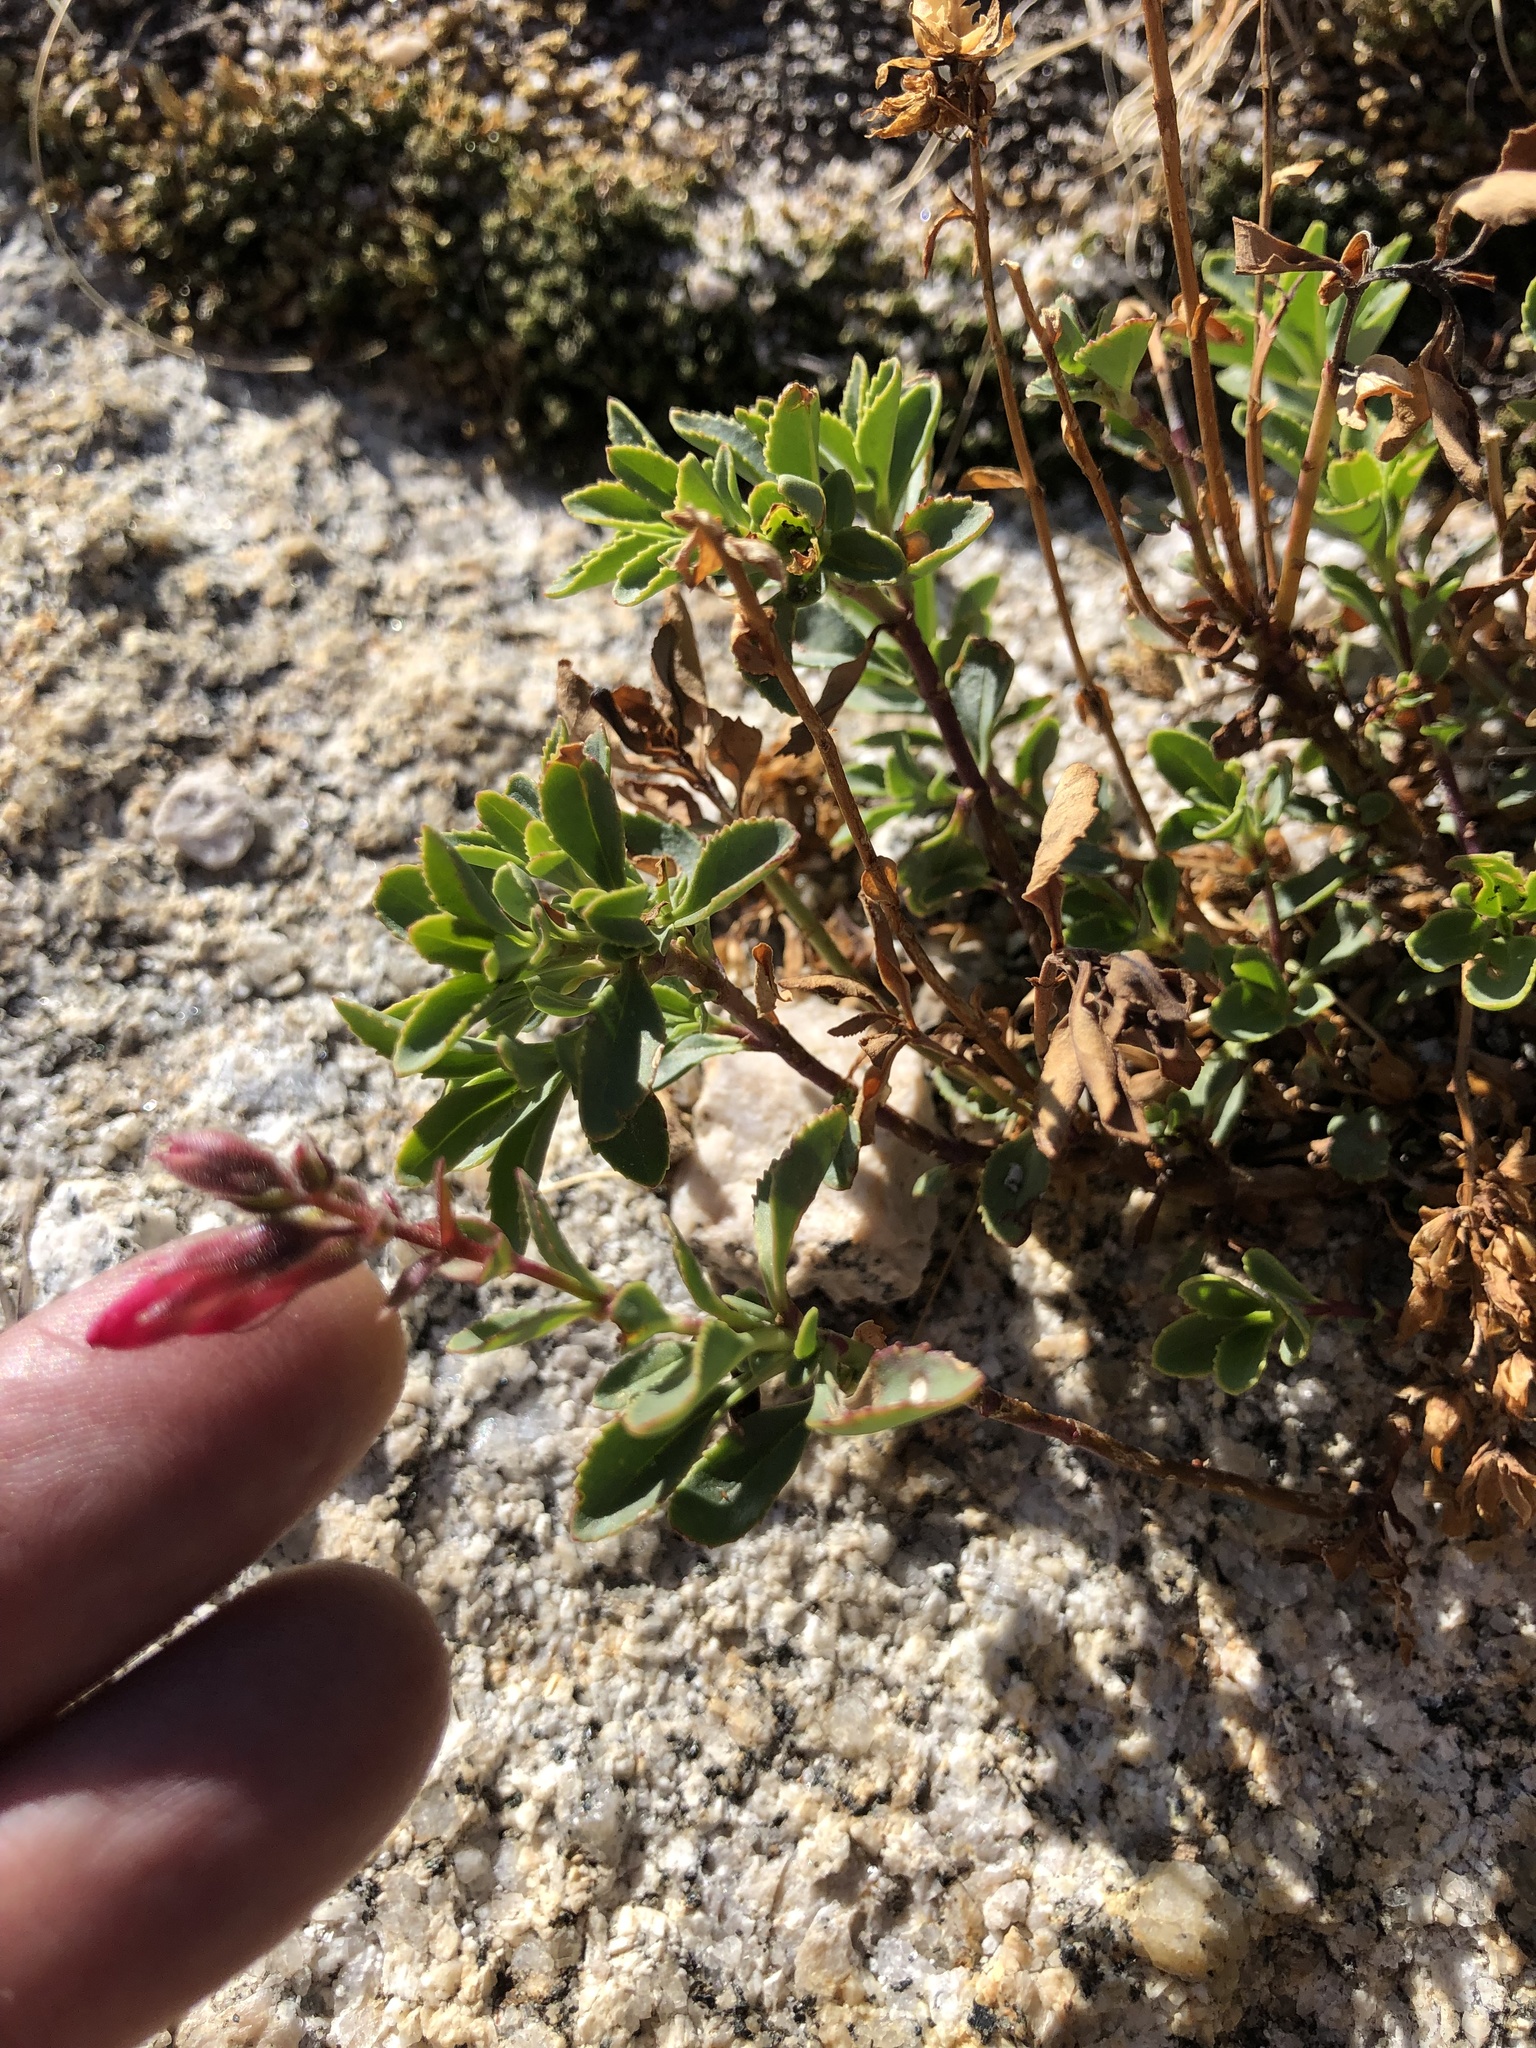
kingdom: Plantae
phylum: Tracheophyta
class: Magnoliopsida
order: Lamiales
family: Plantaginaceae
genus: Penstemon
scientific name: Penstemon newberryi
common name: Mountain-pride
